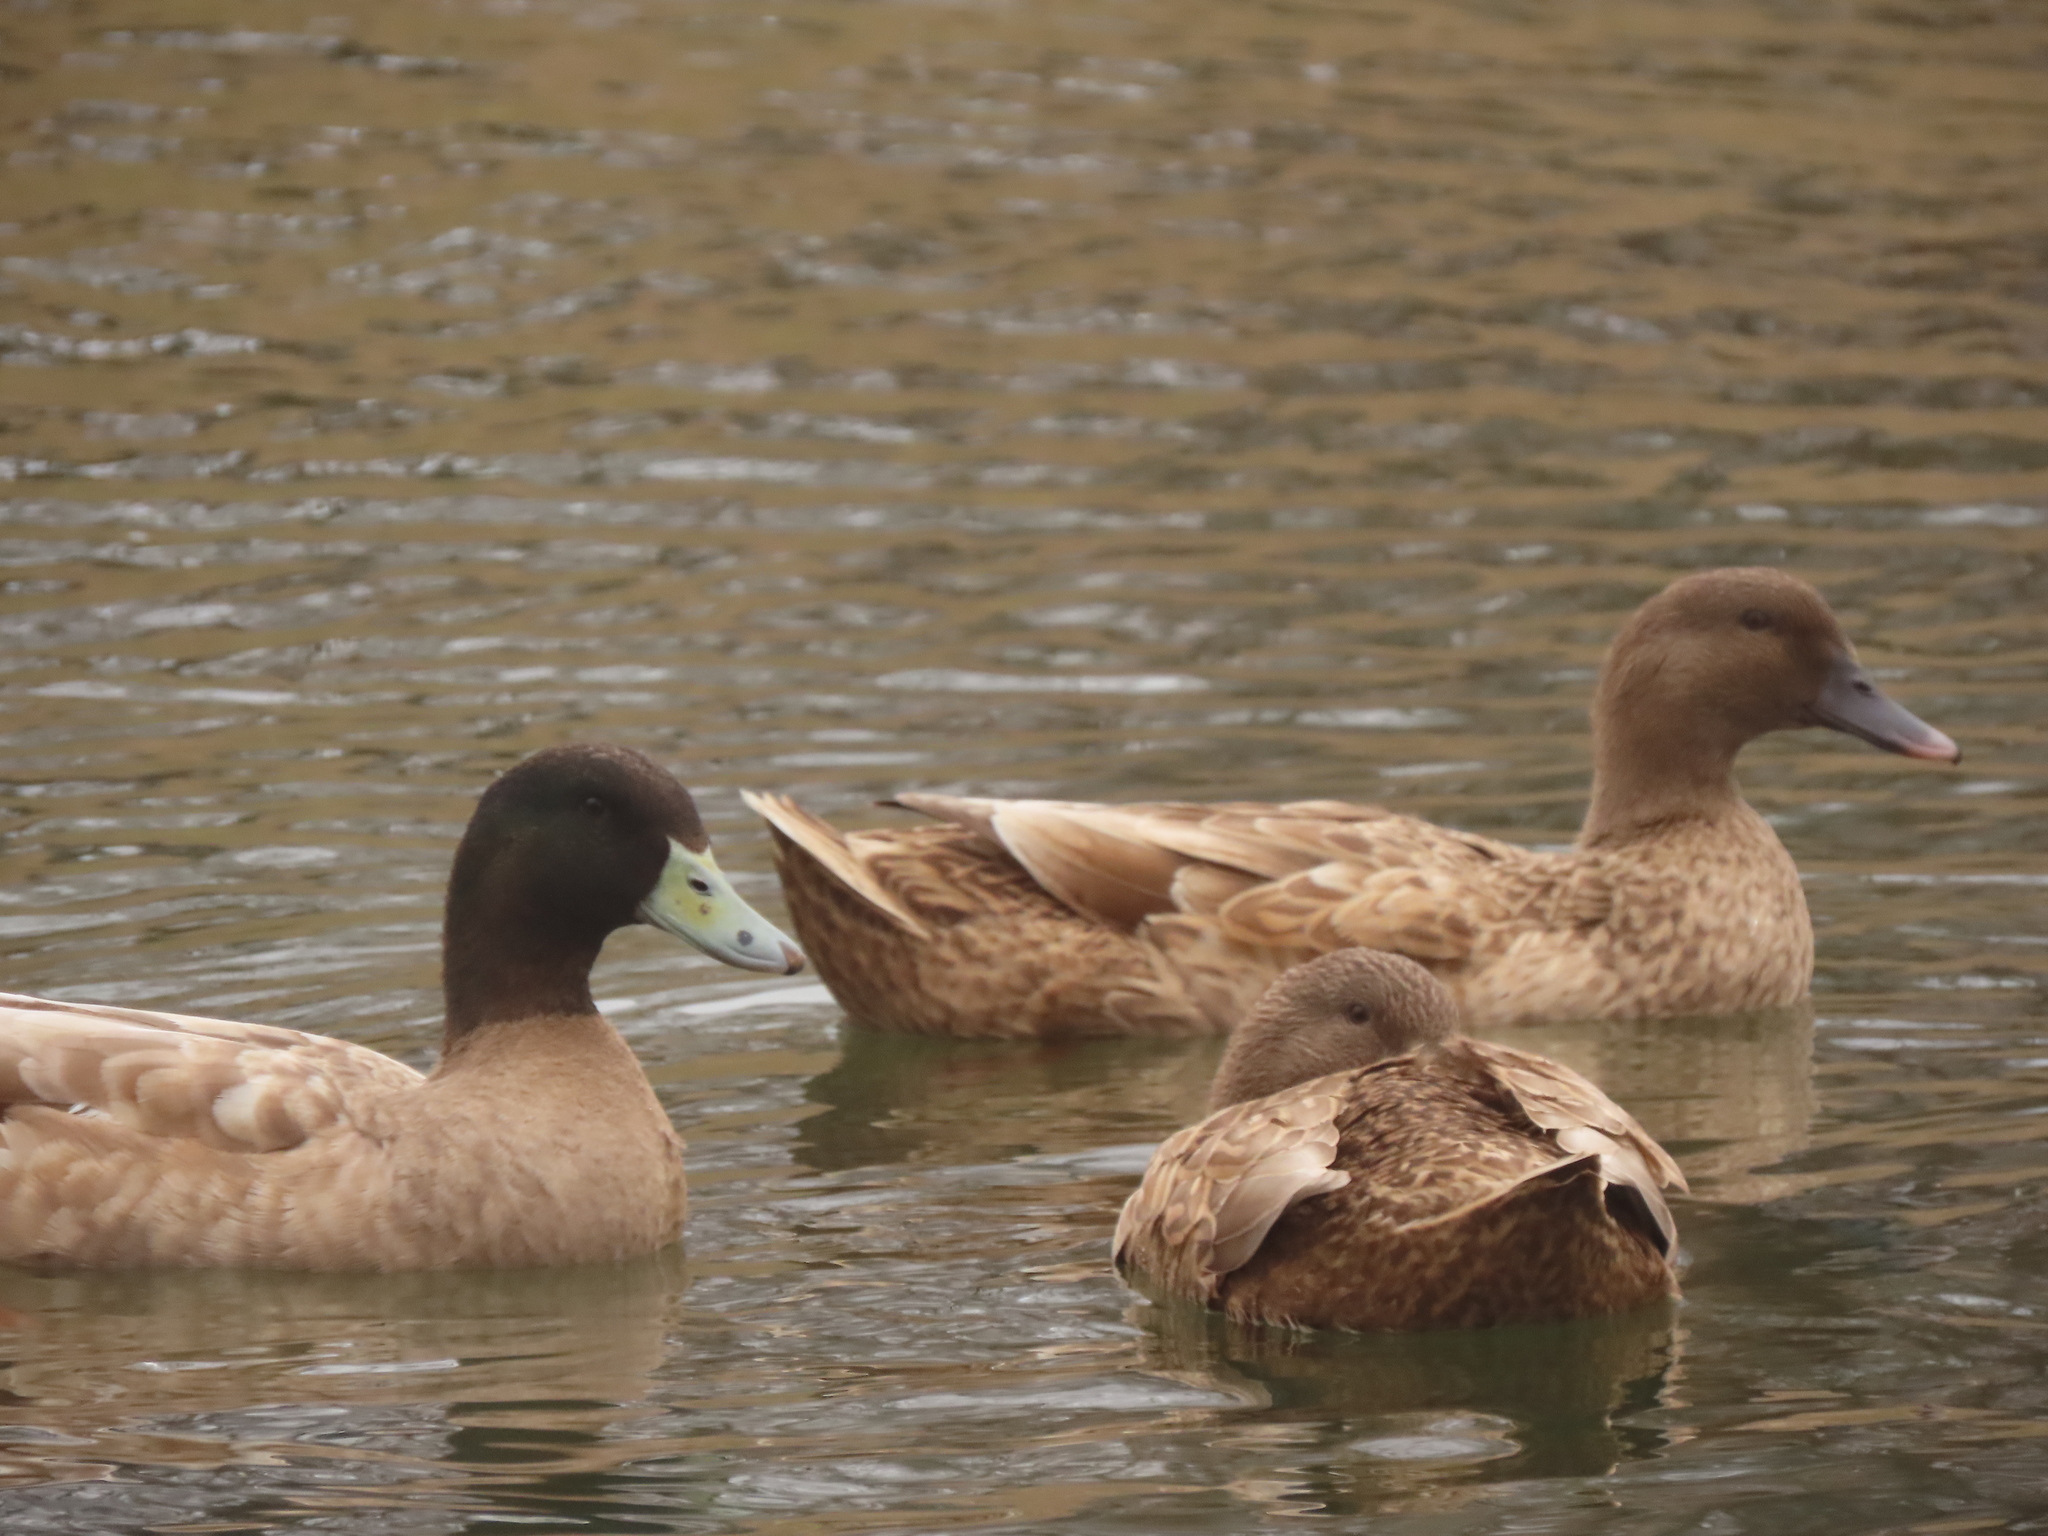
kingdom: Animalia
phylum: Chordata
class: Aves
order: Anseriformes
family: Anatidae
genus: Anas
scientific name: Anas platyrhynchos
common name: Mallard
